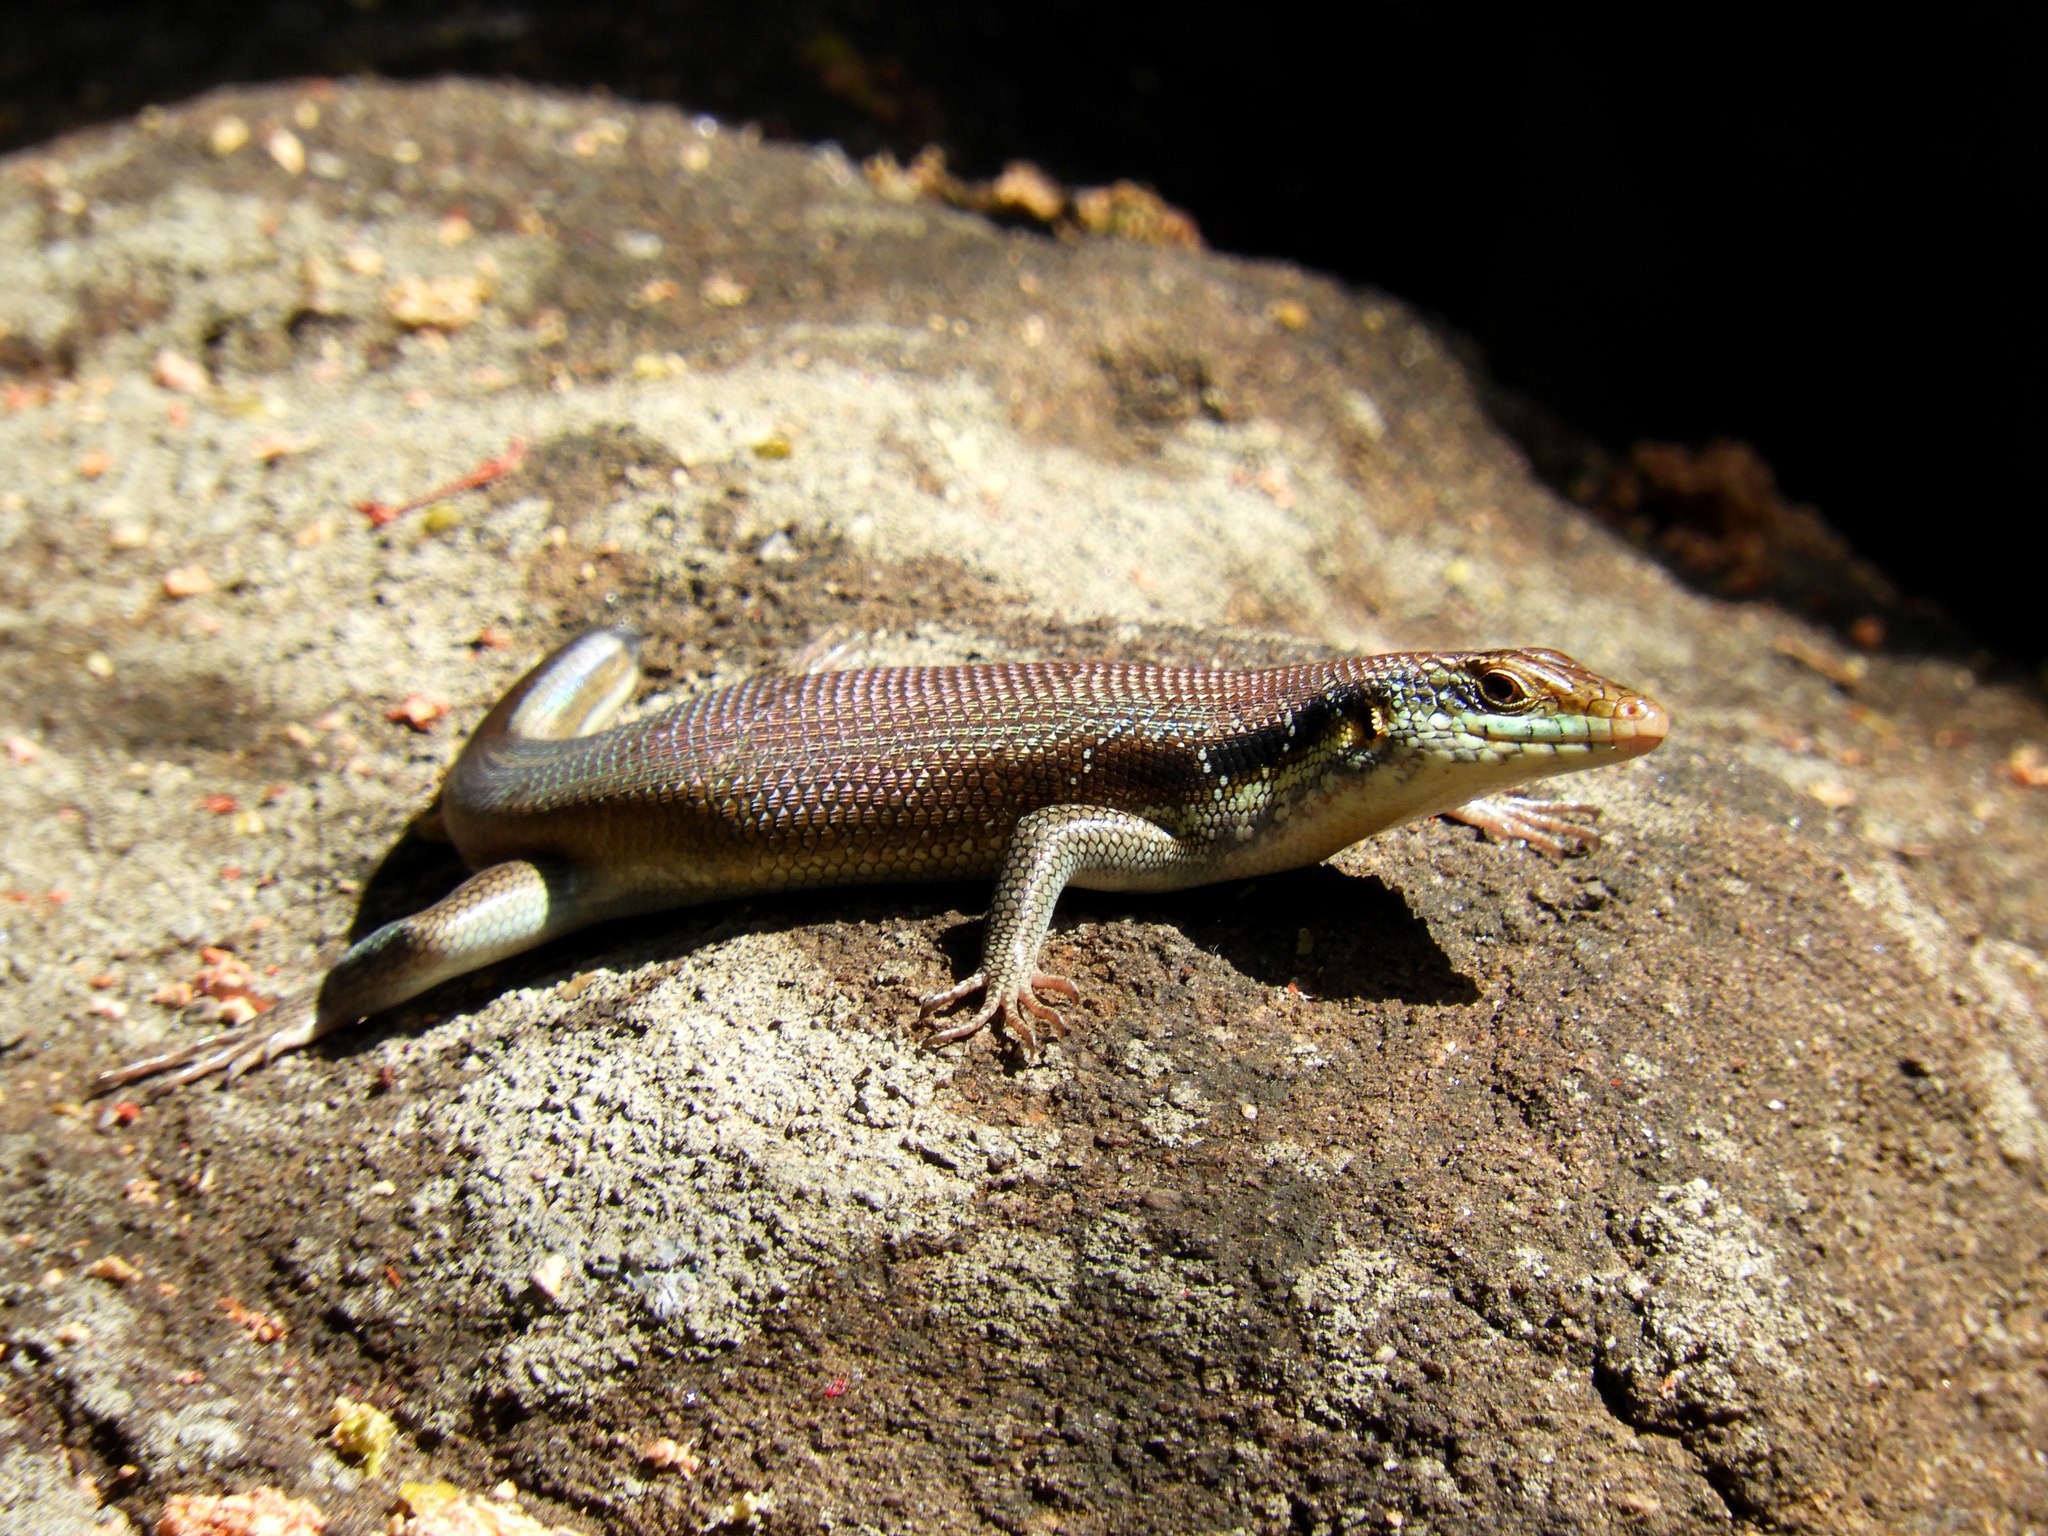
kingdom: Animalia
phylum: Chordata
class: Squamata
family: Scincidae
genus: Trachylepis
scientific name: Trachylepis margaritifera
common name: Rainbow skink
